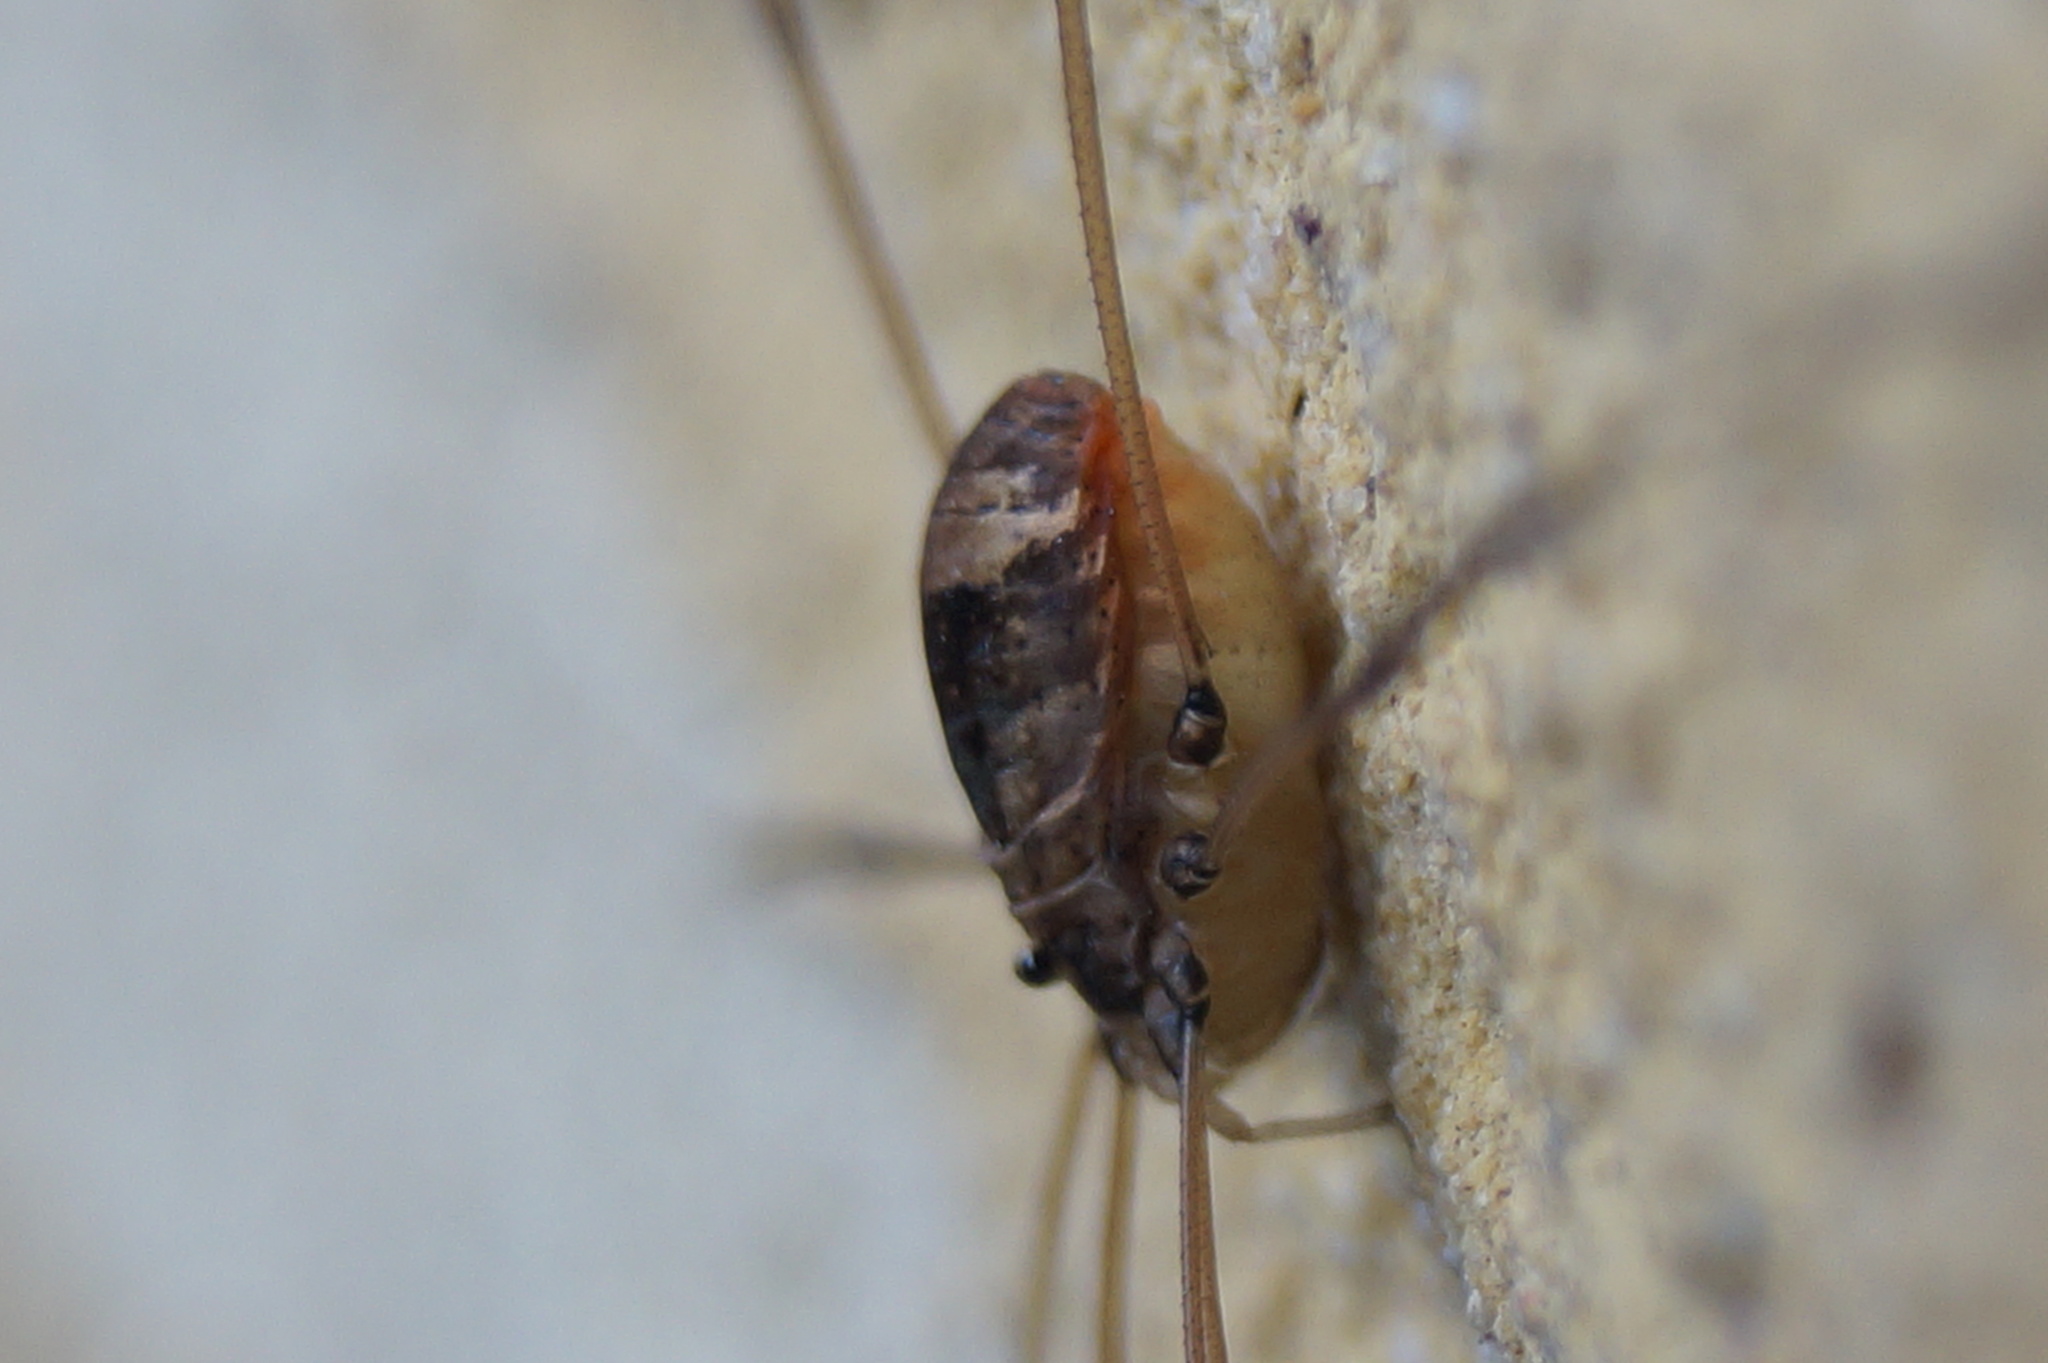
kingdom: Animalia
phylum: Arthropoda
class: Arachnida
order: Opiliones
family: Sclerosomatidae
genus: Leiobunum
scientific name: Leiobunum blackwalli
